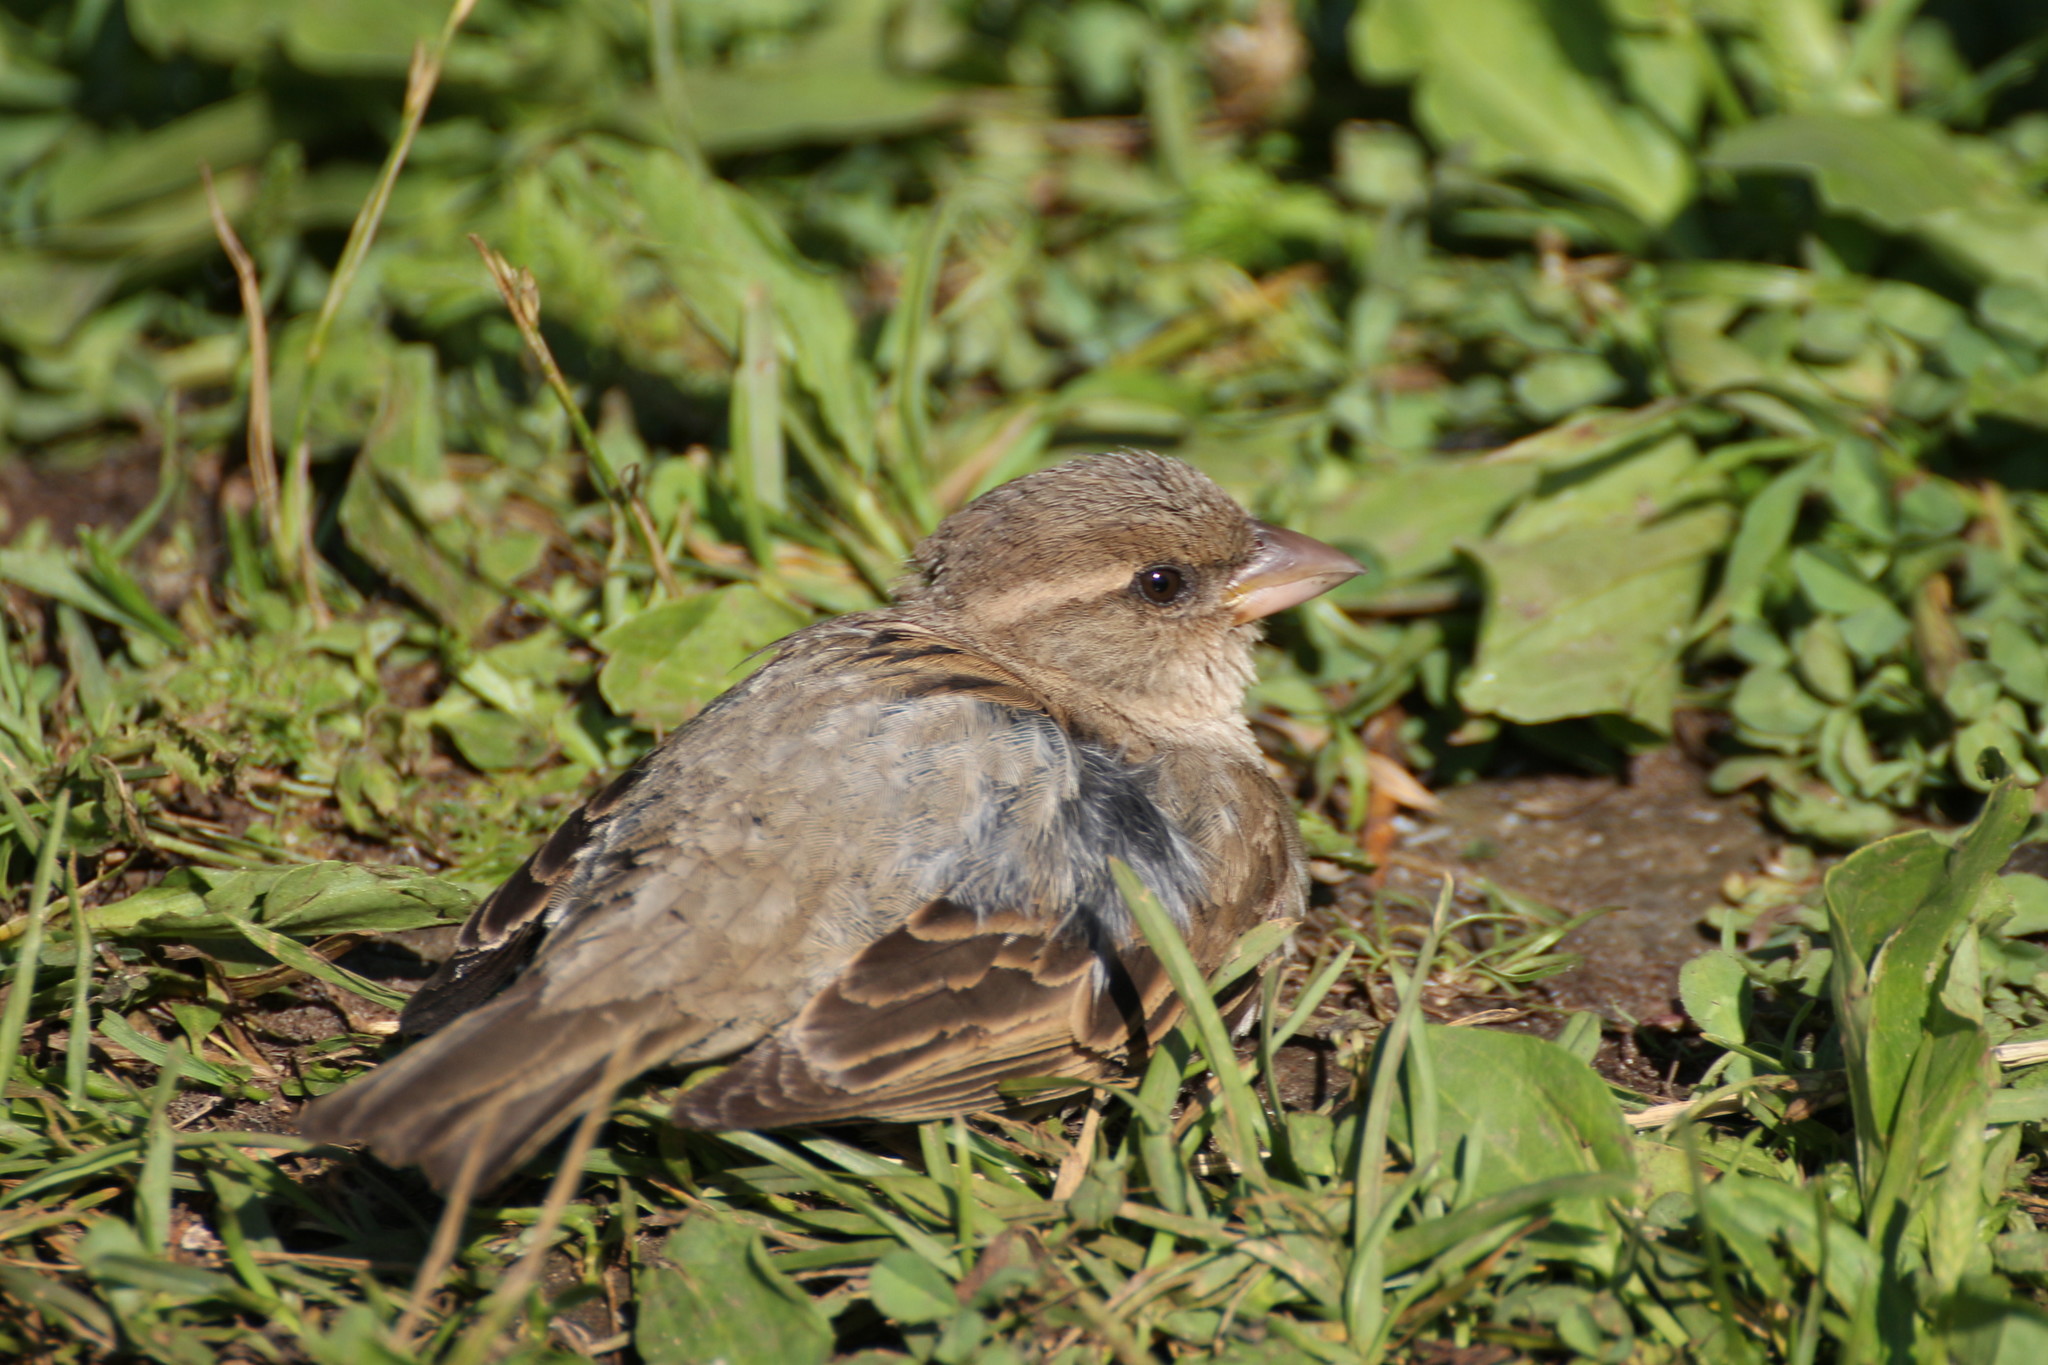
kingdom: Animalia
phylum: Chordata
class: Aves
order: Passeriformes
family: Passeridae
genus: Passer
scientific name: Passer domesticus
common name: House sparrow
